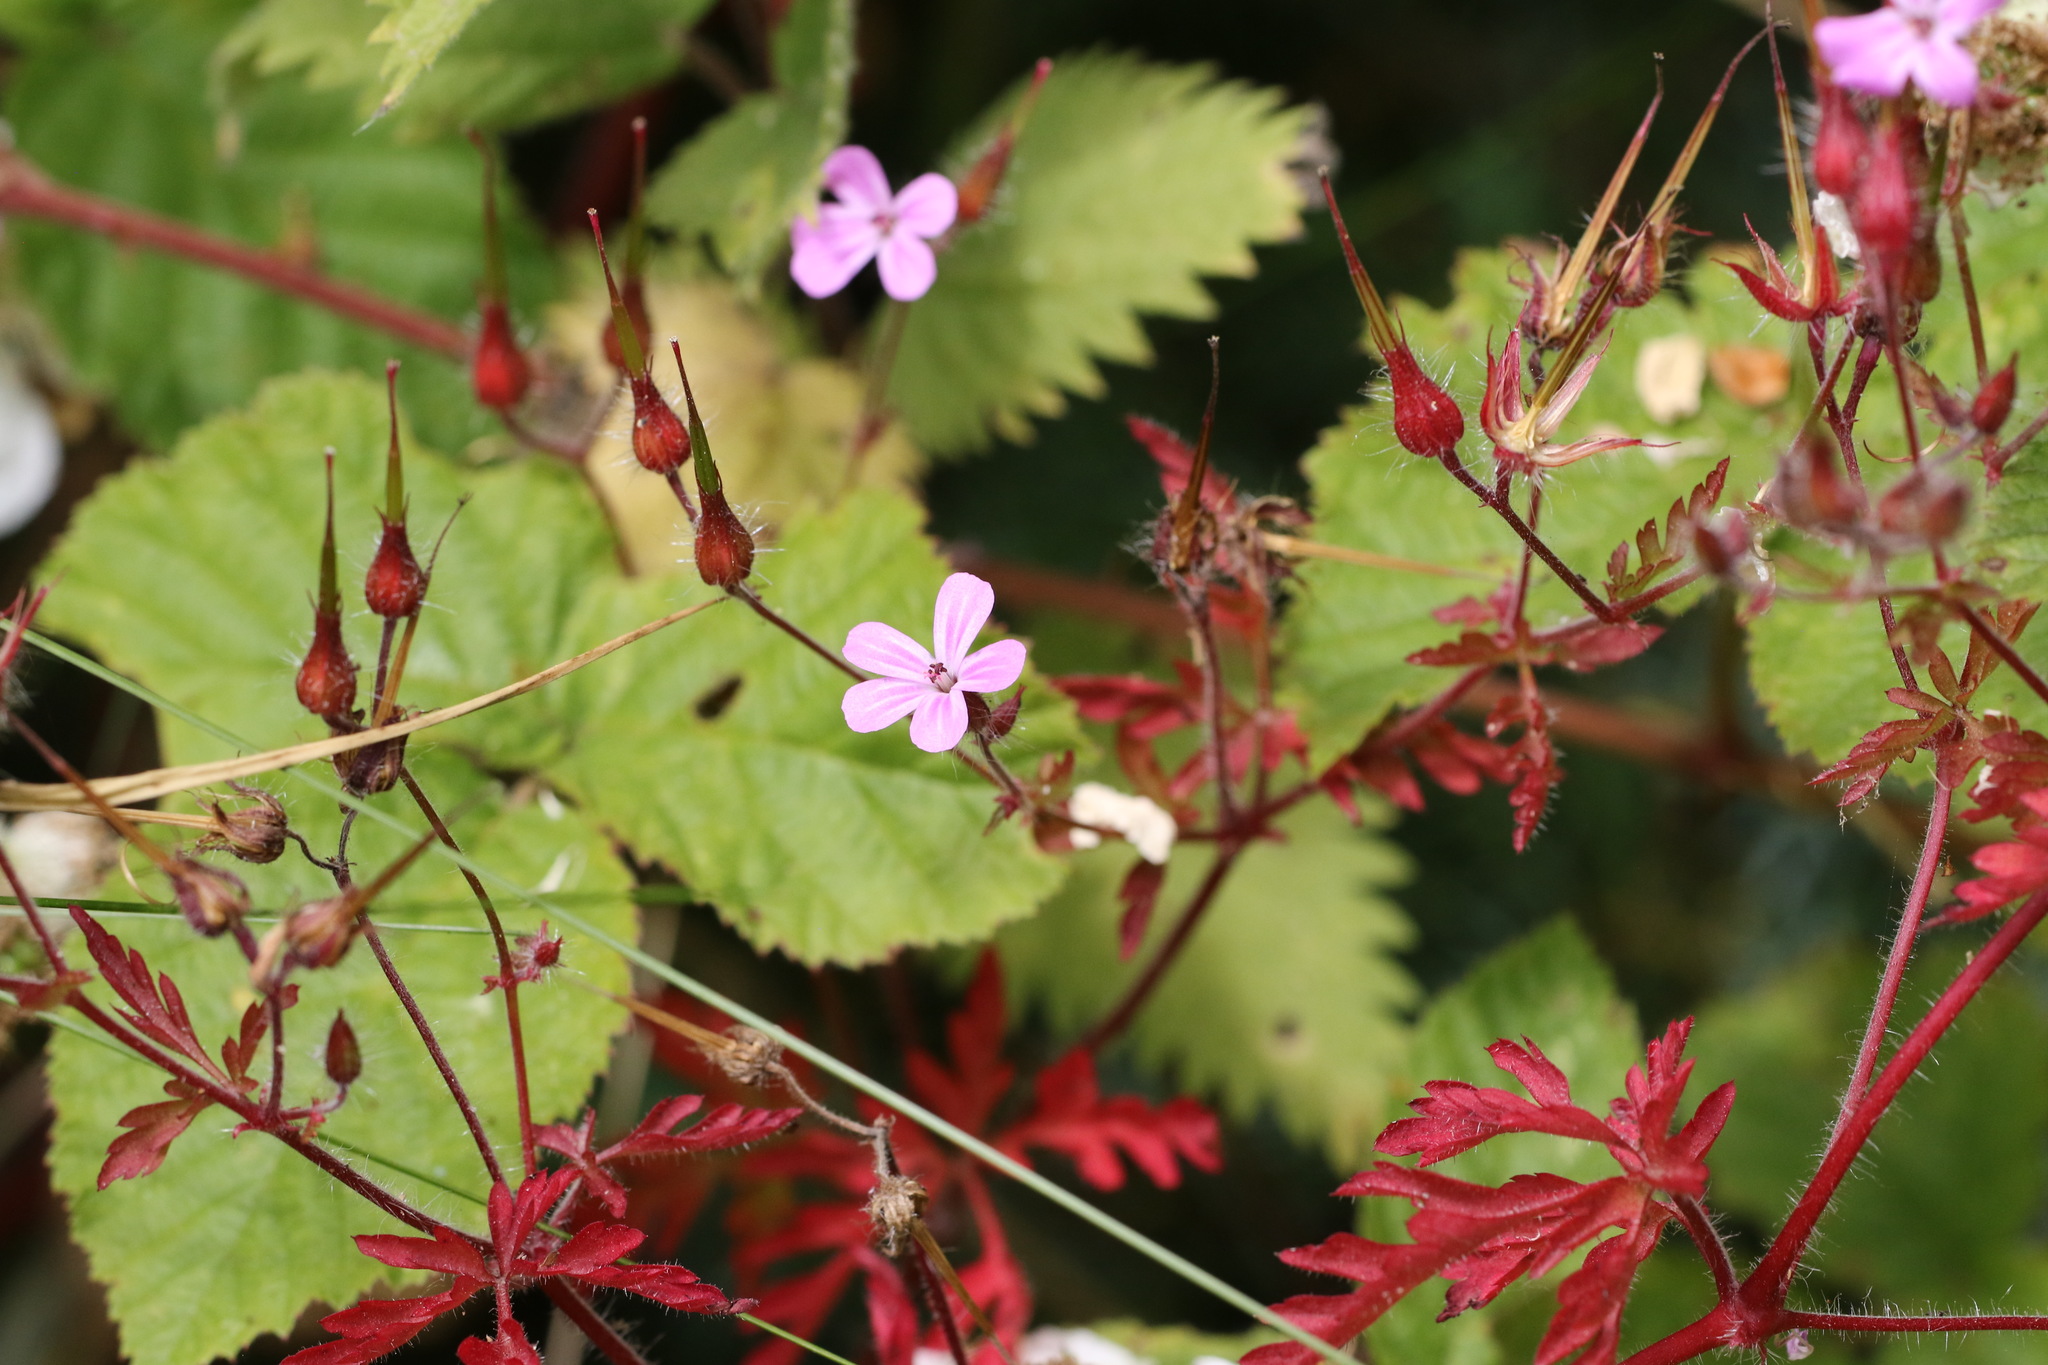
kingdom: Plantae
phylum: Tracheophyta
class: Magnoliopsida
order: Geraniales
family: Geraniaceae
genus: Geranium
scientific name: Geranium robertianum
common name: Herb-robert
